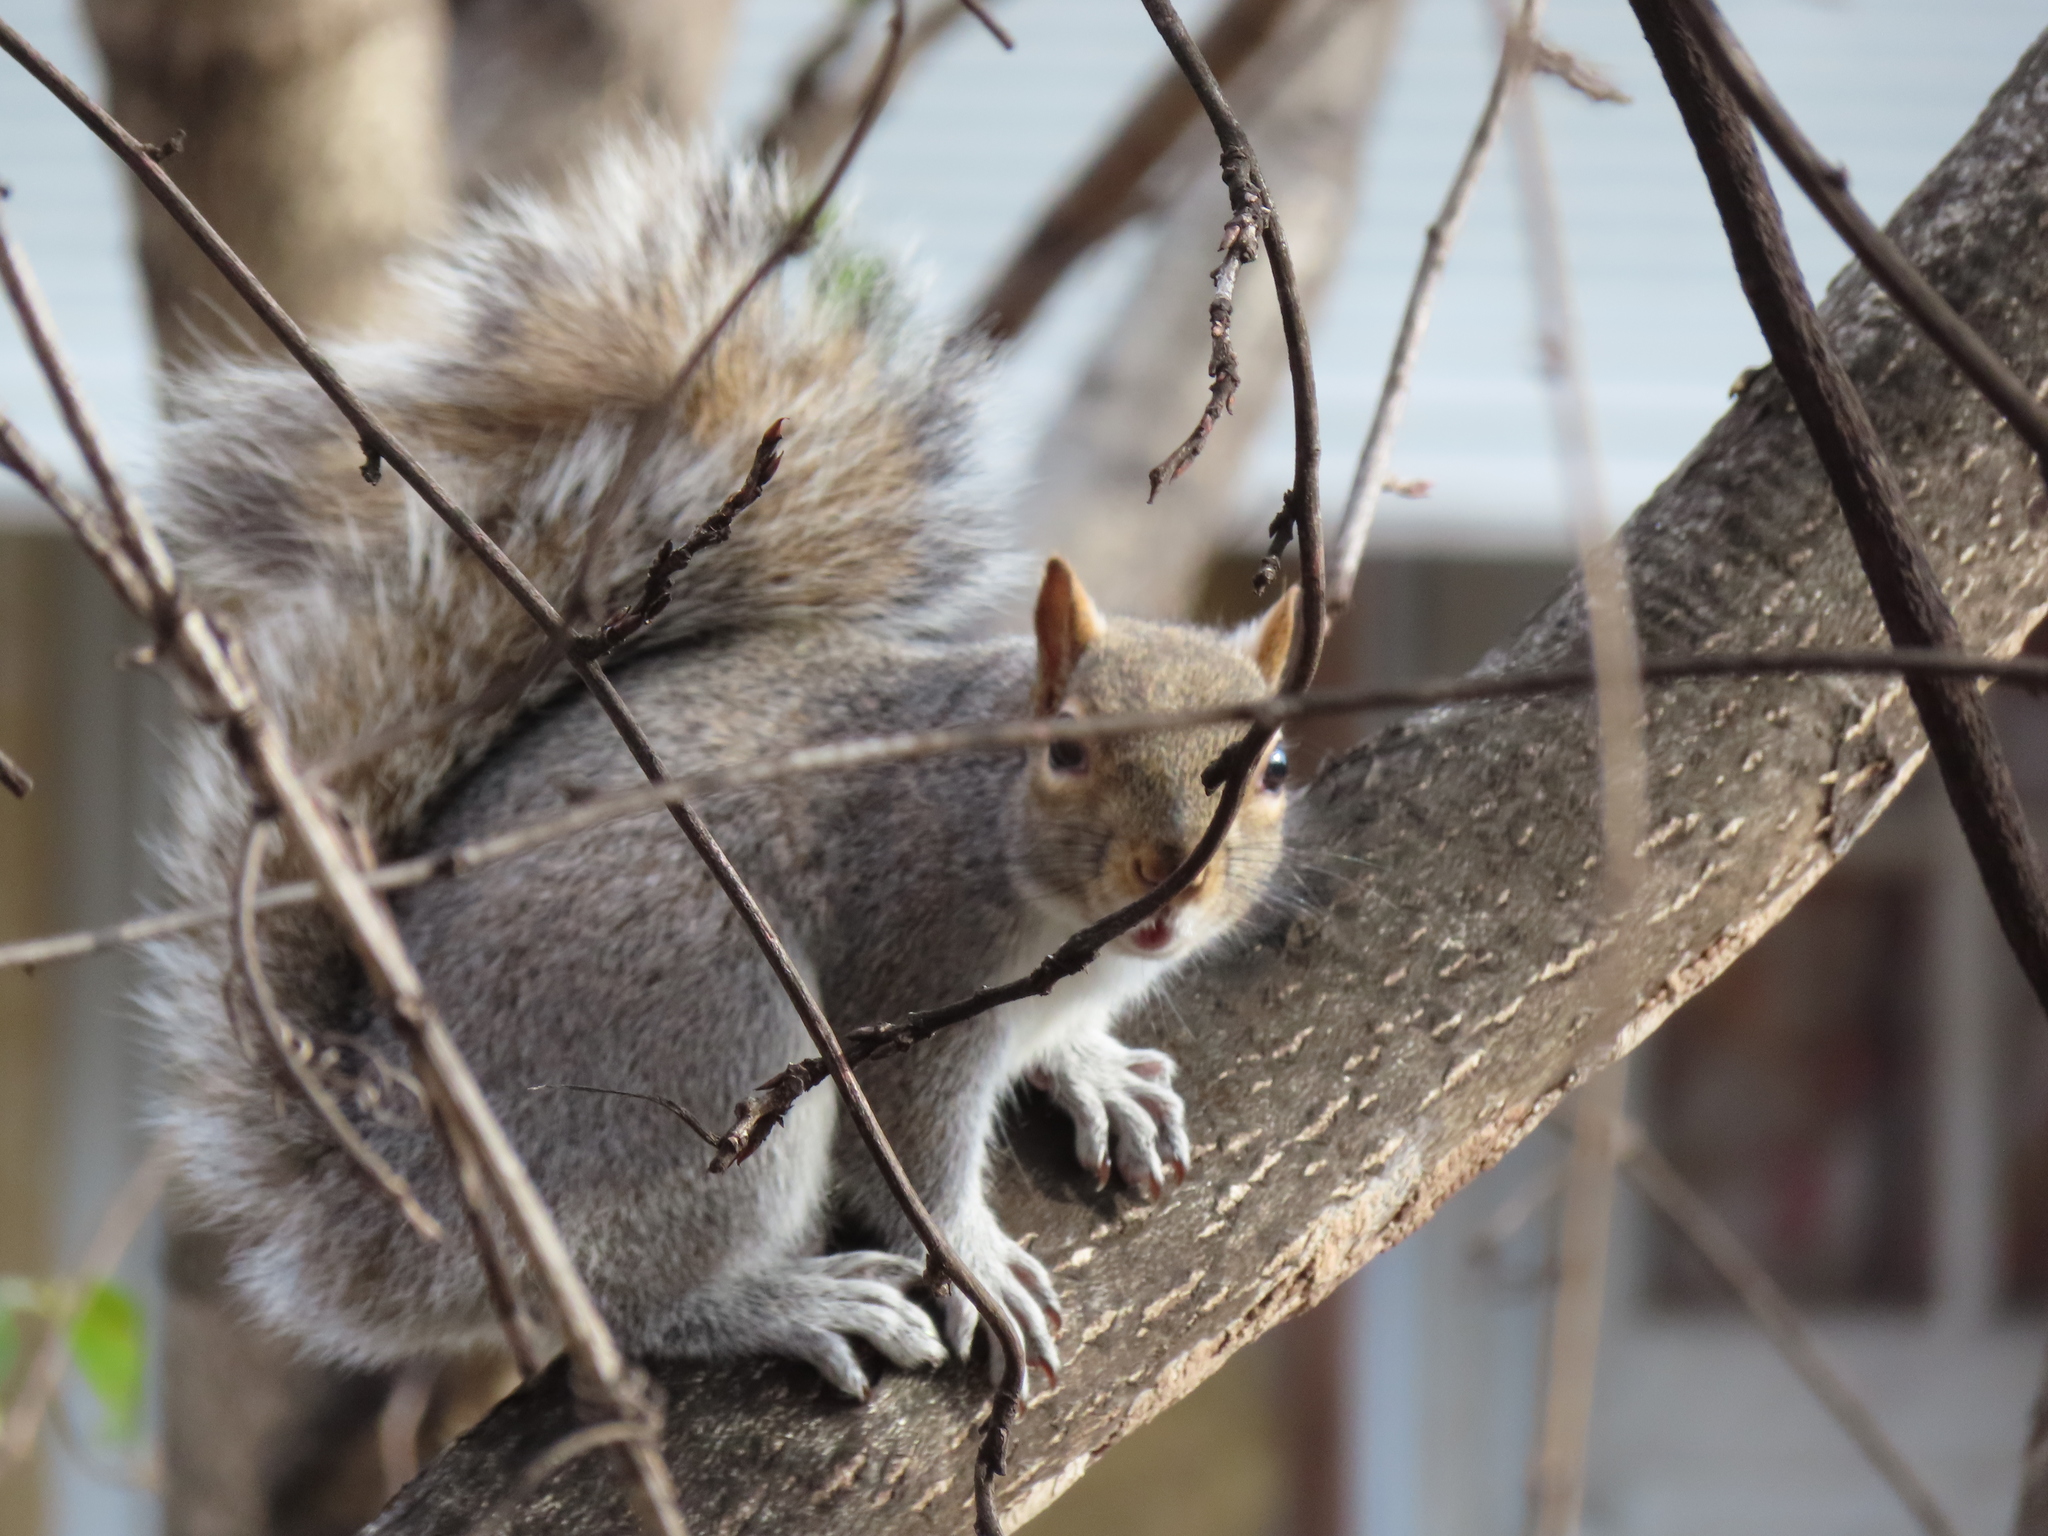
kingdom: Animalia
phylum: Chordata
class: Mammalia
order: Rodentia
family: Sciuridae
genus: Sciurus
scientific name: Sciurus carolinensis
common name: Eastern gray squirrel
